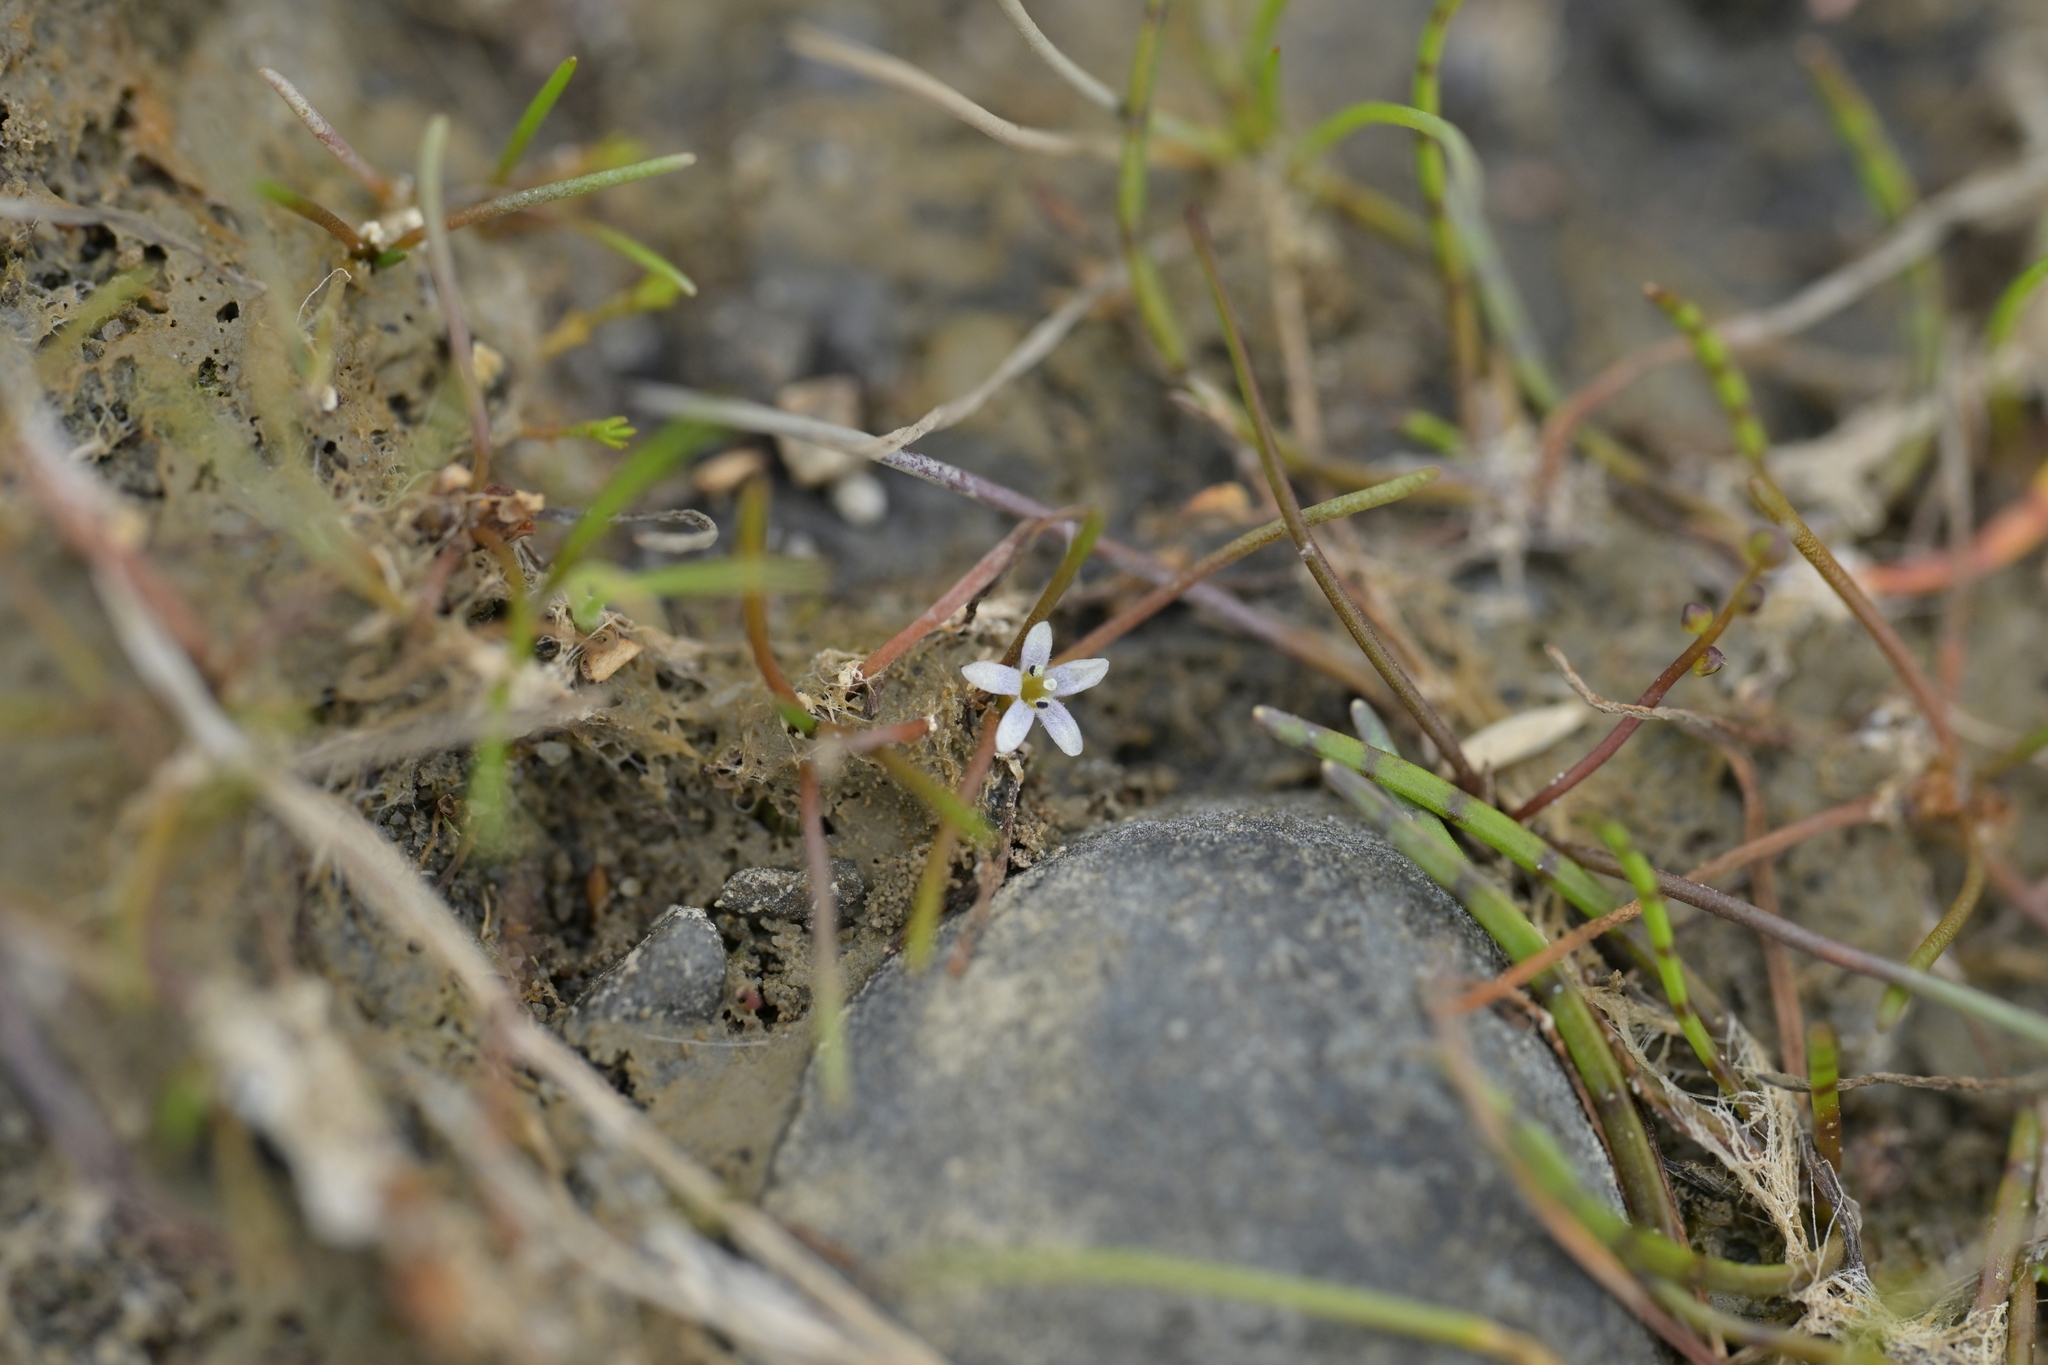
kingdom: Plantae
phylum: Tracheophyta
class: Magnoliopsida
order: Lamiales
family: Scrophulariaceae
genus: Limosella
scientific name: Limosella australis
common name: Welsh mudwort
